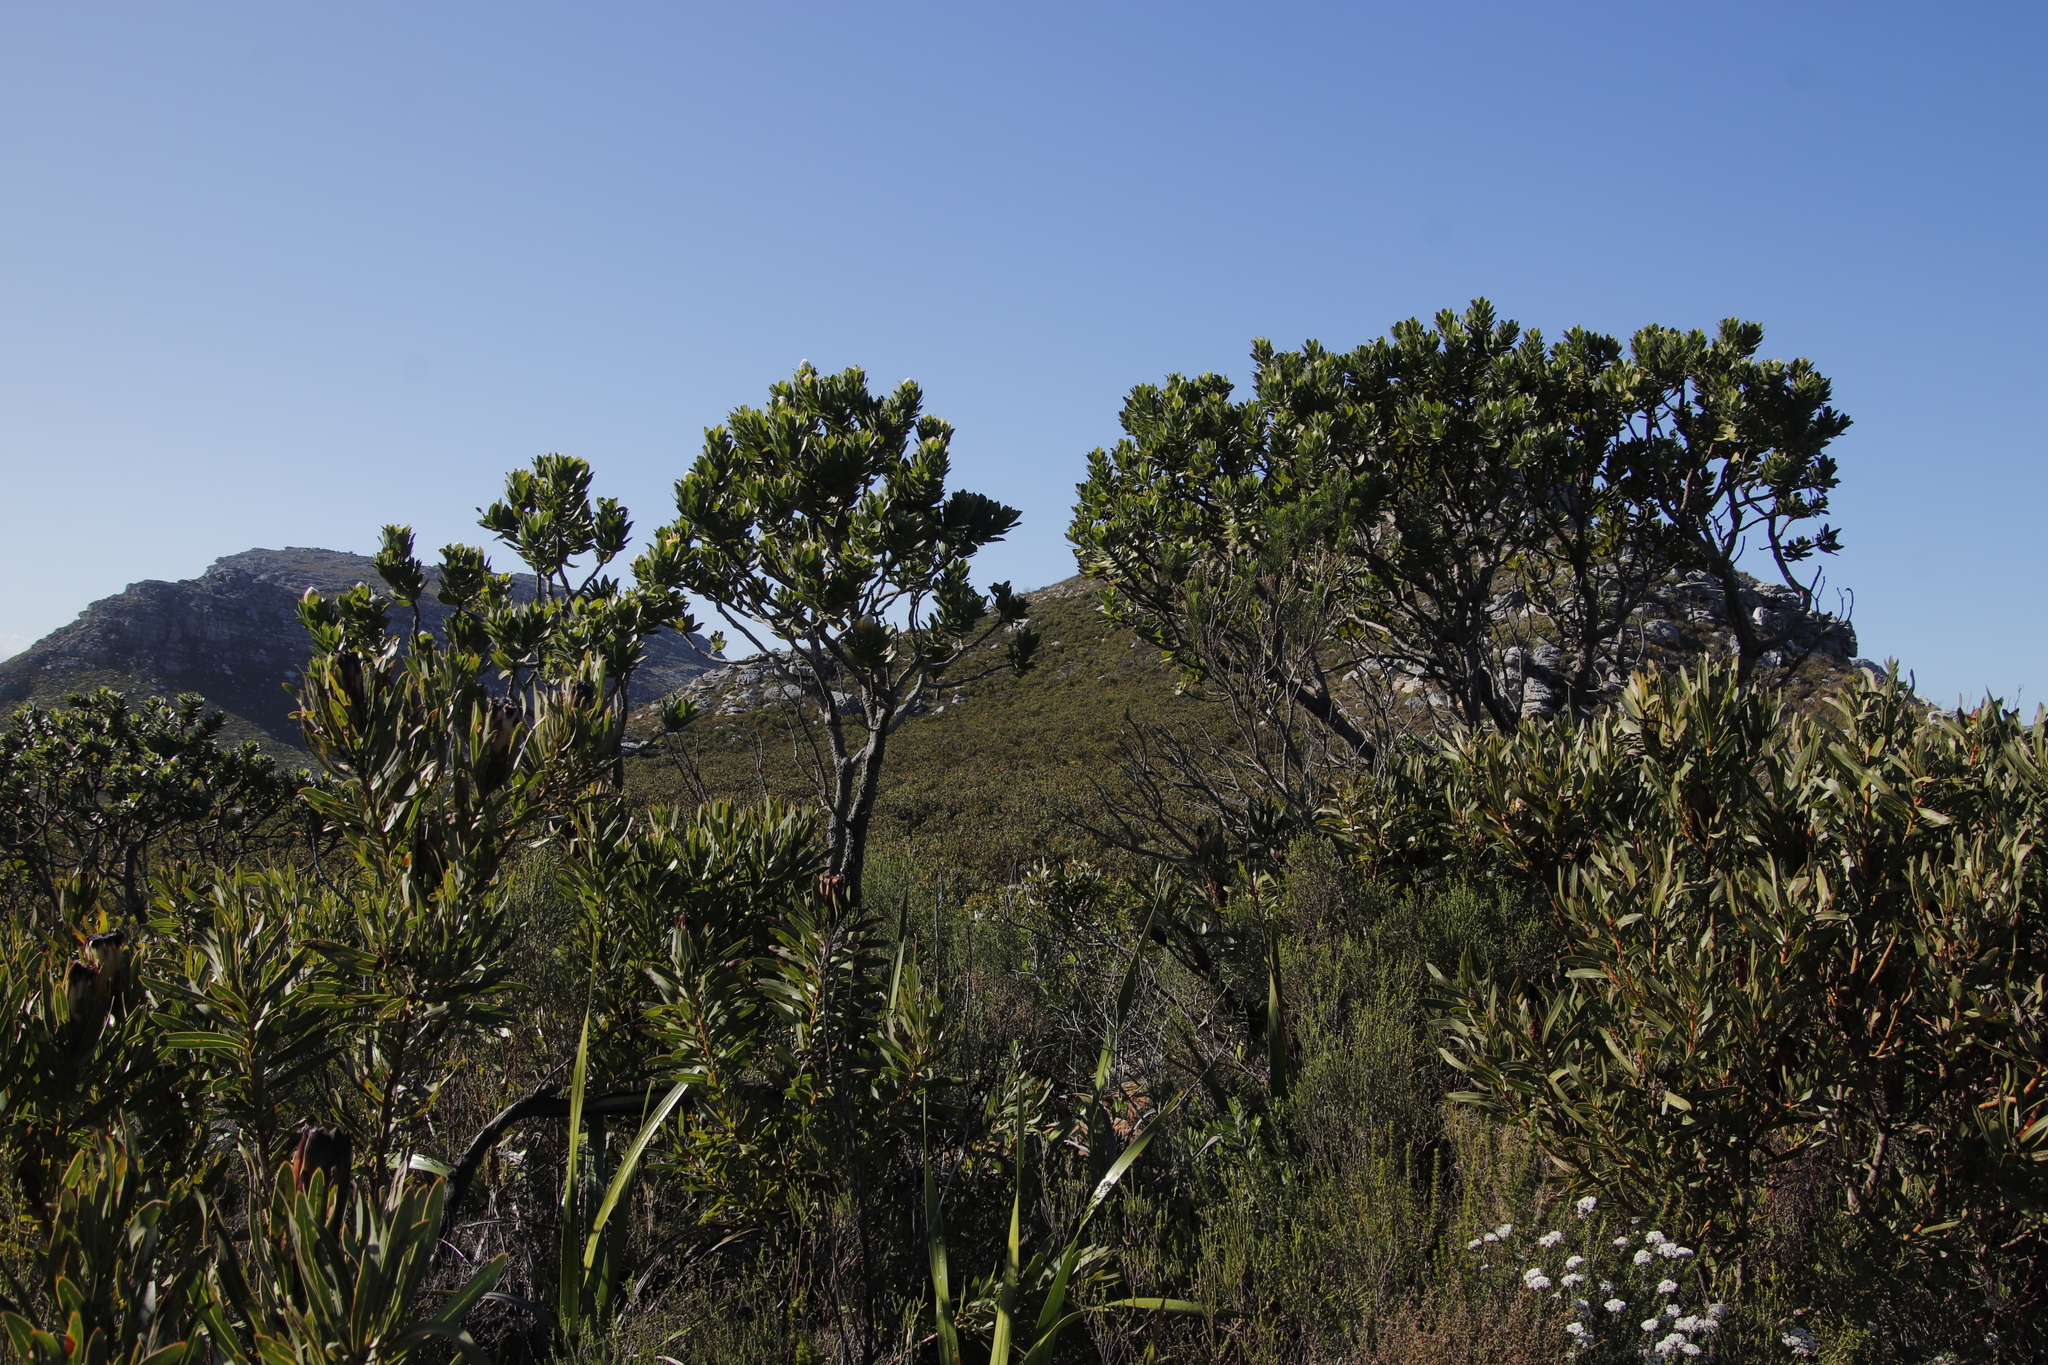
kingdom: Plantae
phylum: Tracheophyta
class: Magnoliopsida
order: Proteales
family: Proteaceae
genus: Leucospermum
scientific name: Leucospermum conocarpodendron
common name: Tree pincushion
